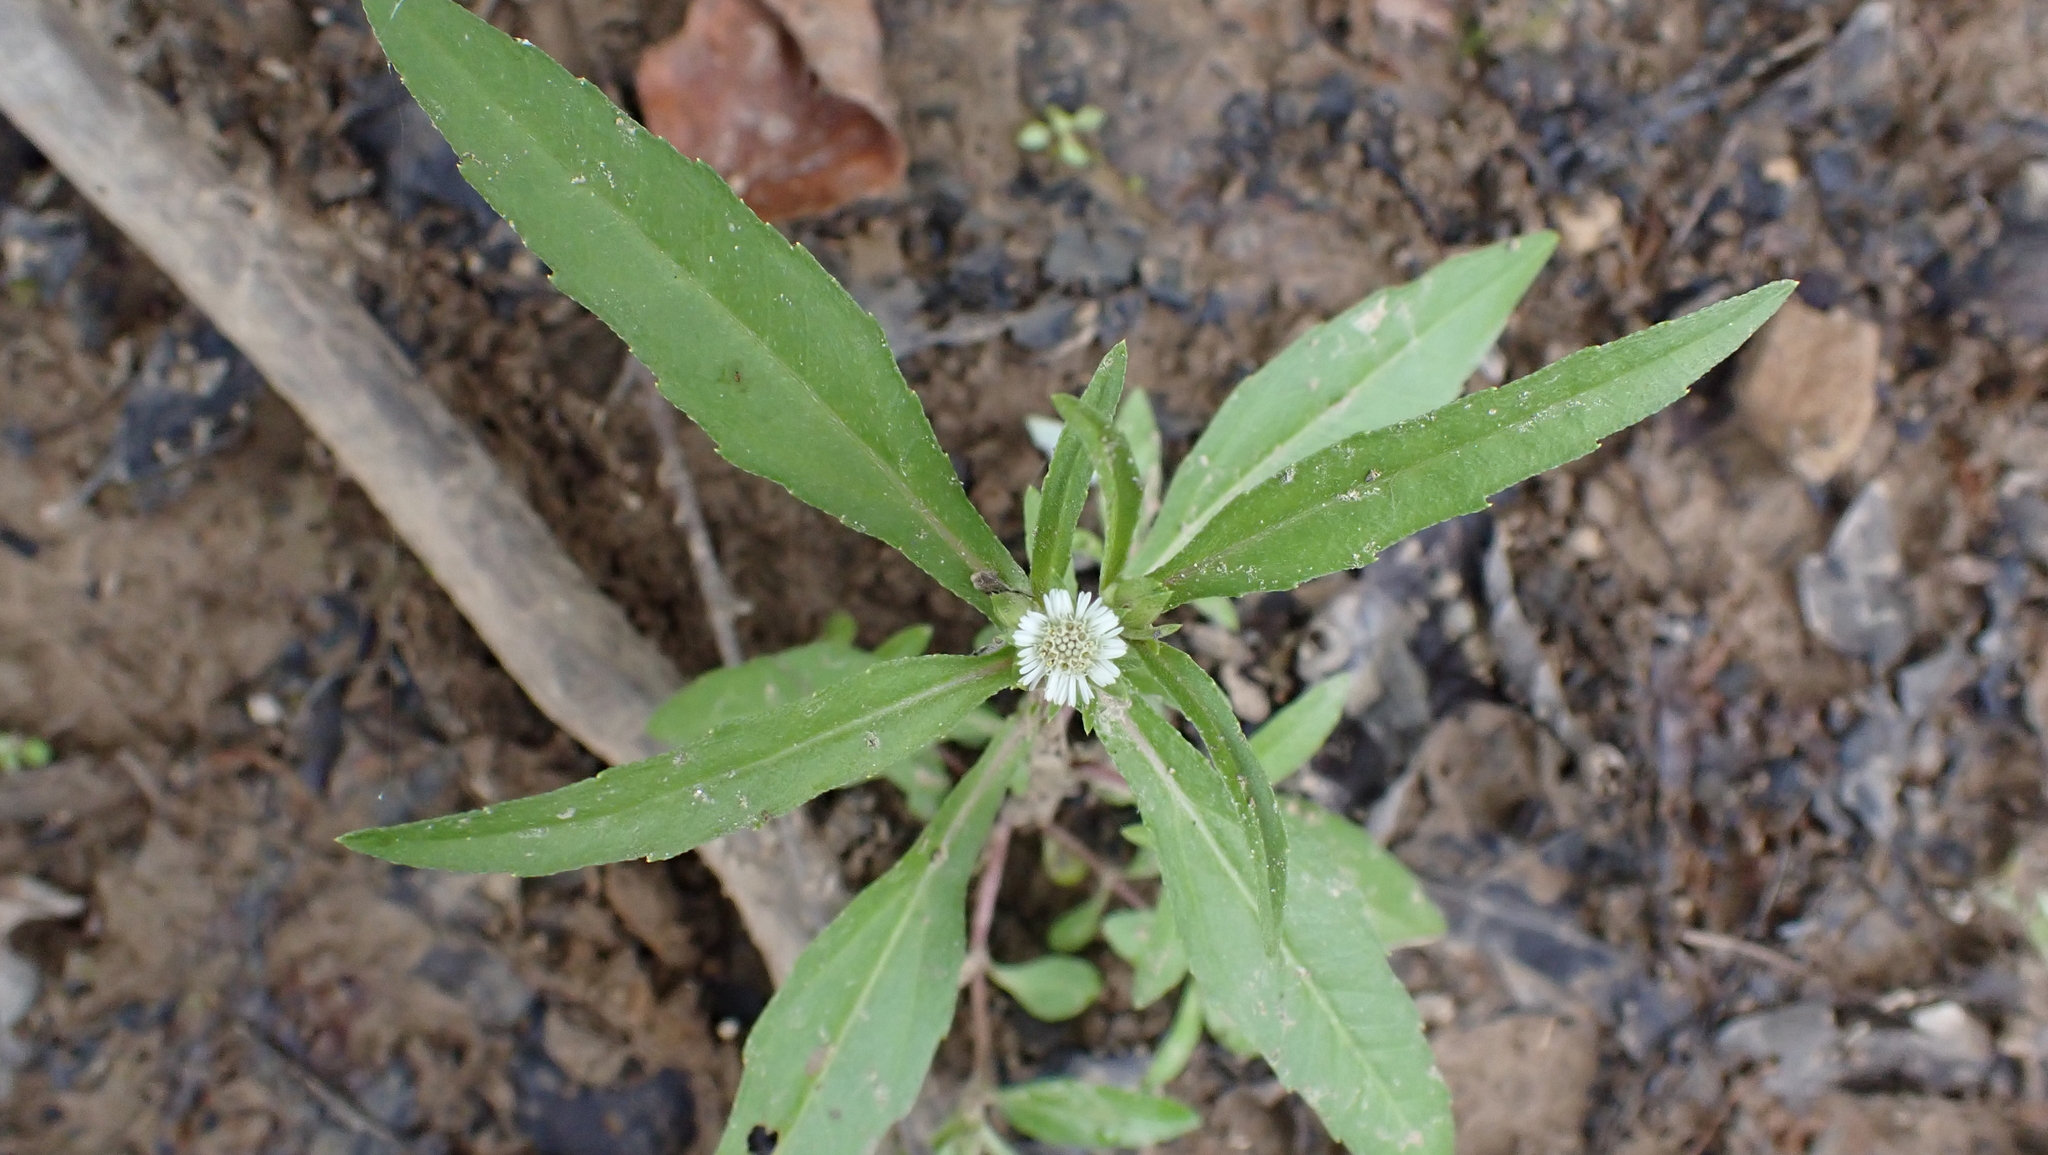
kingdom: Plantae
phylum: Tracheophyta
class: Magnoliopsida
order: Asterales
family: Asteraceae
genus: Eclipta
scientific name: Eclipta prostrata
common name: False daisy
